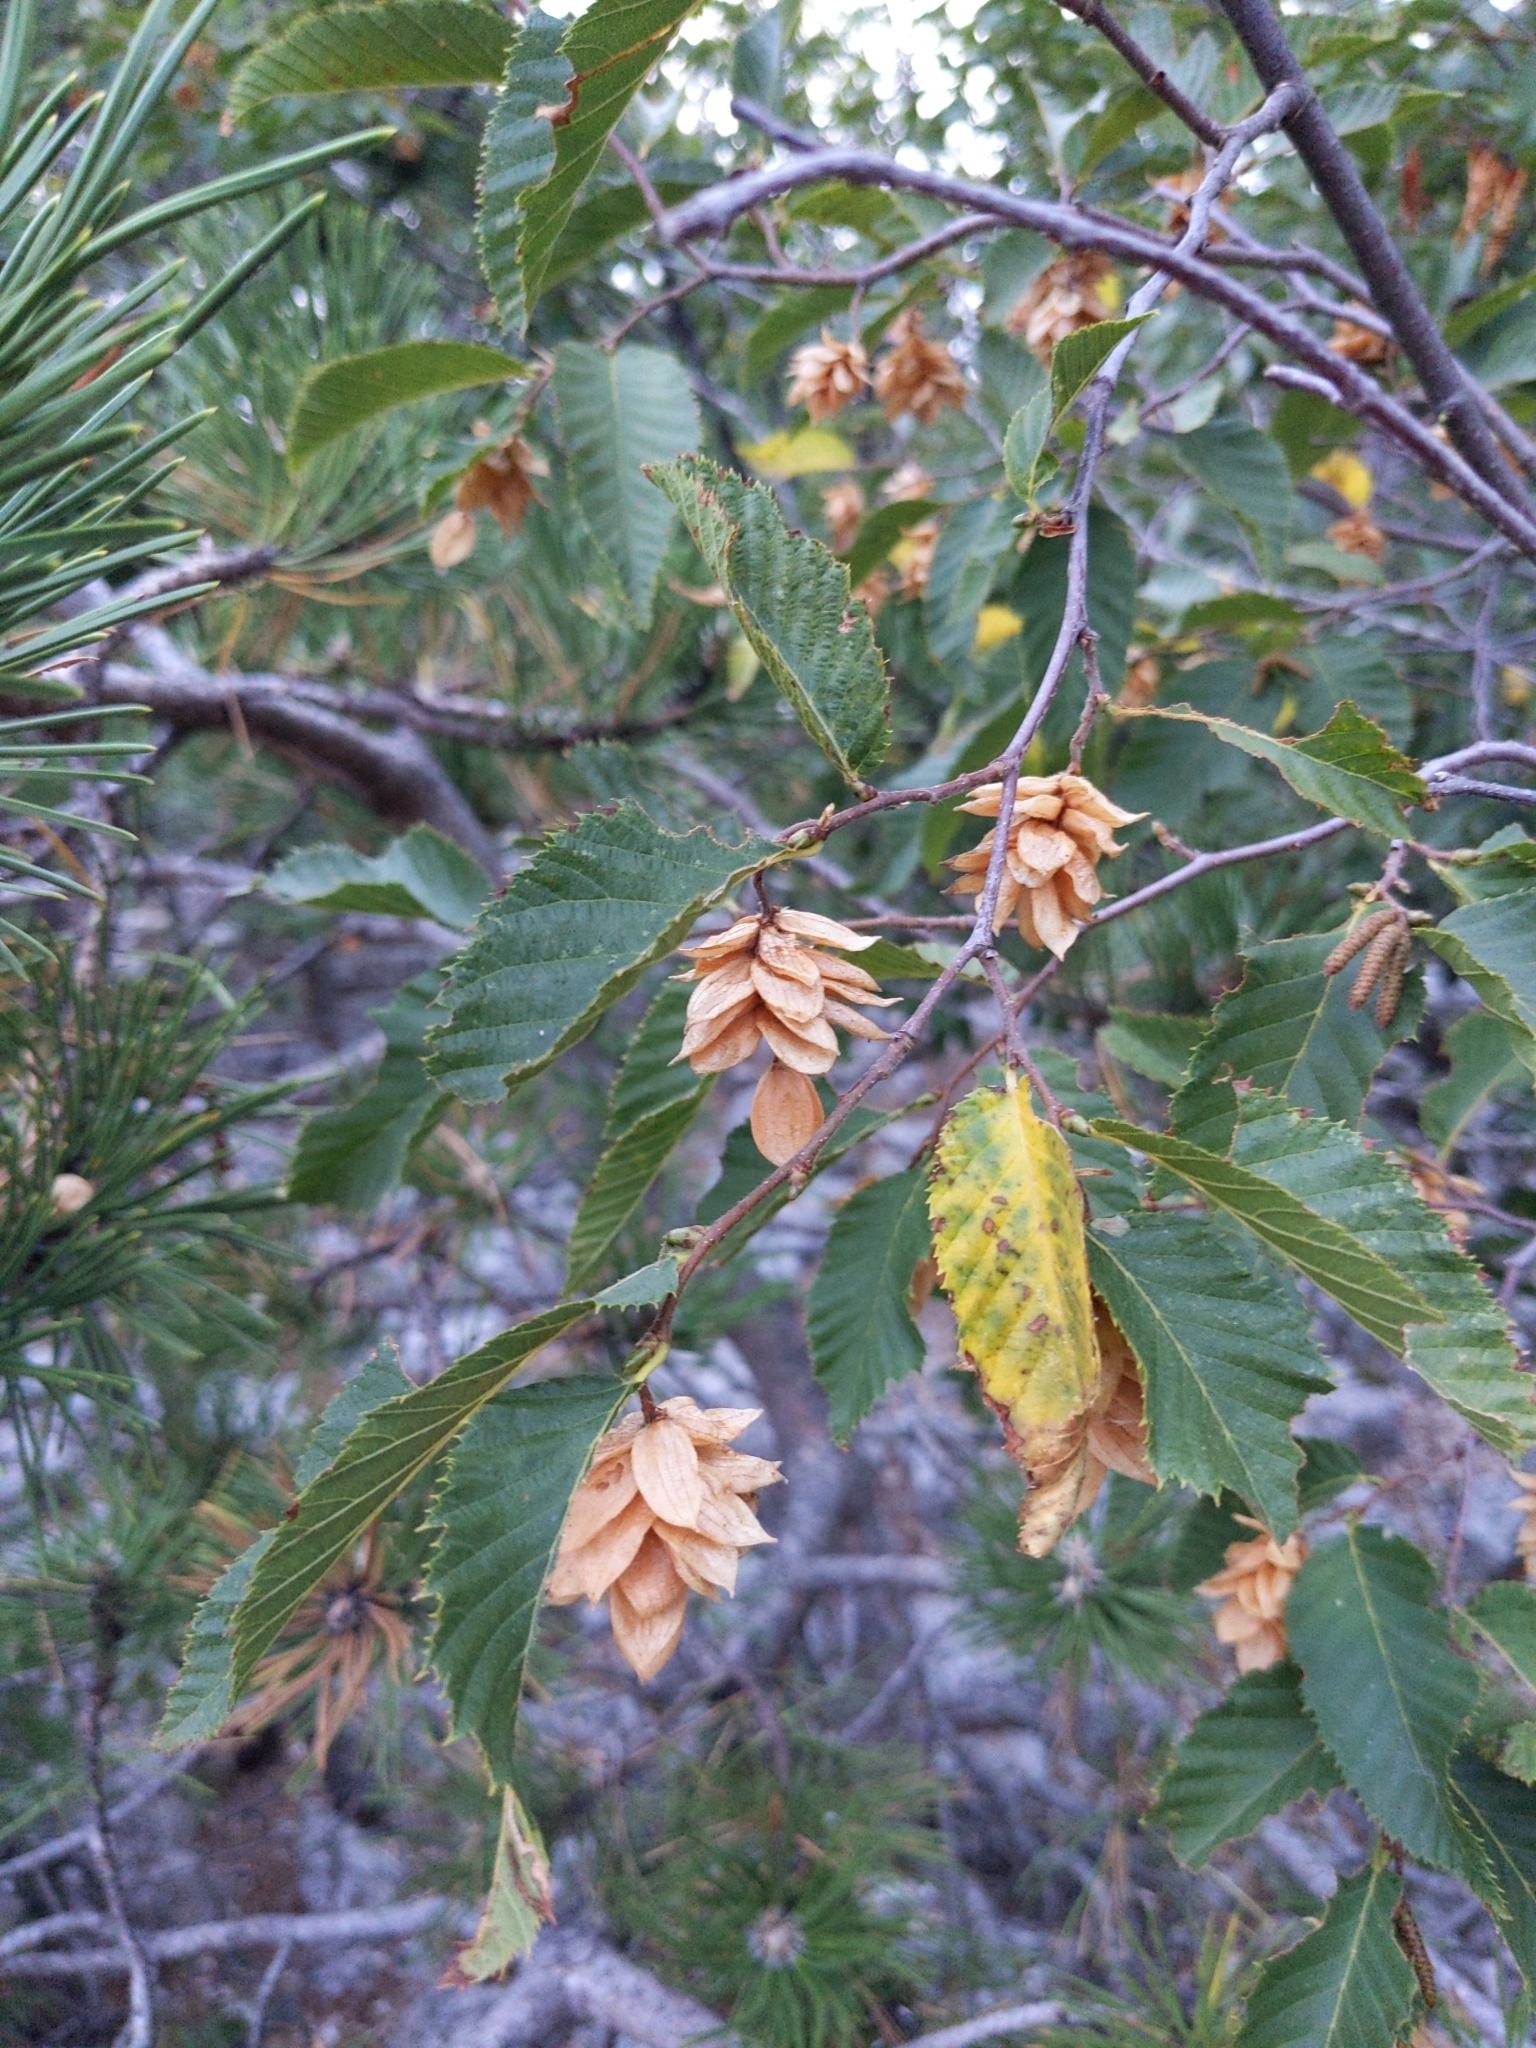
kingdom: Plantae
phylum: Tracheophyta
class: Magnoliopsida
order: Fagales
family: Betulaceae
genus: Ostrya
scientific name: Ostrya carpinifolia
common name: European hop-hornbeam
